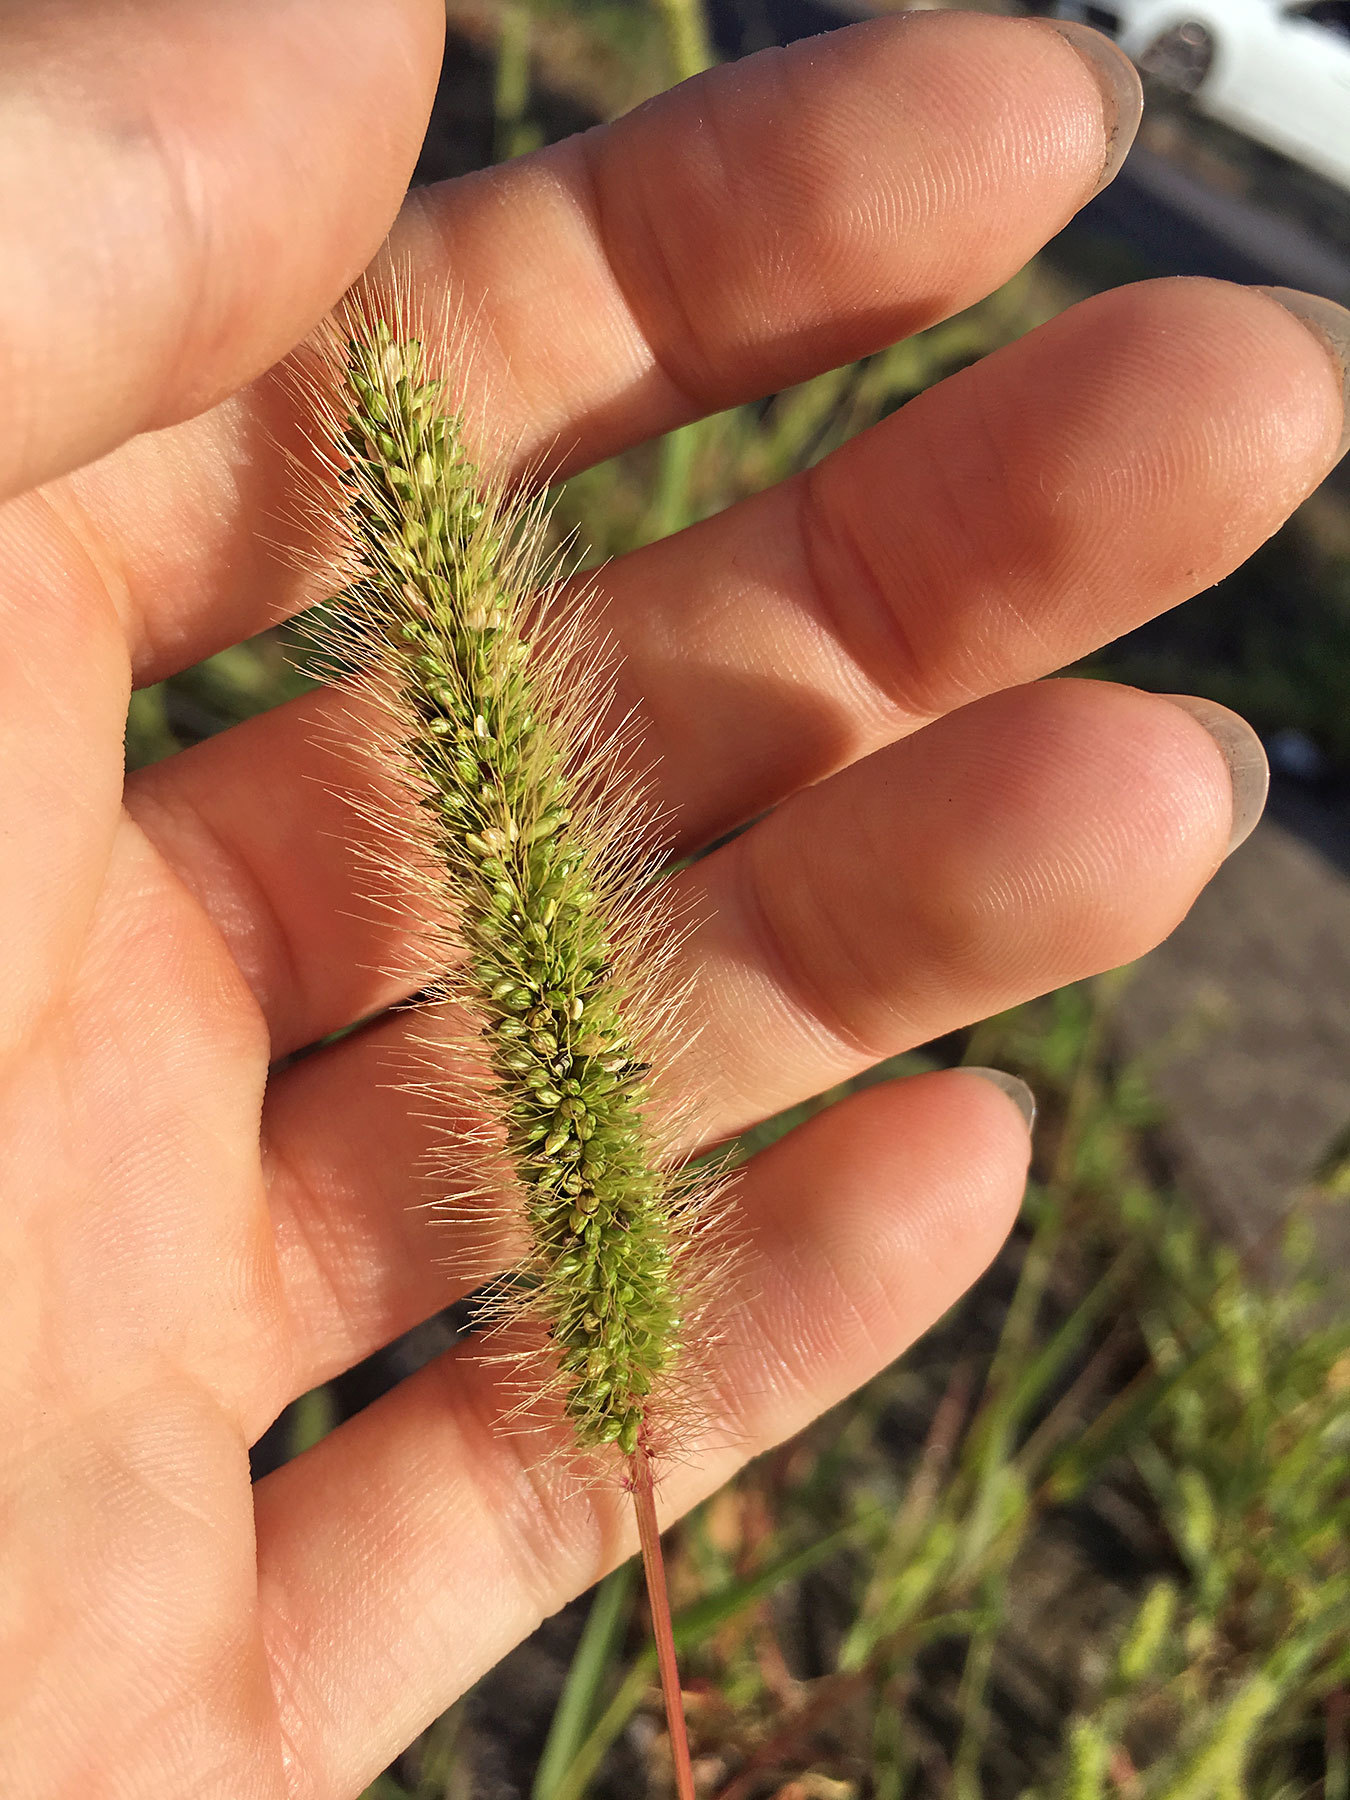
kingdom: Plantae
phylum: Tracheophyta
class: Liliopsida
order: Poales
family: Poaceae
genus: Setaria
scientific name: Setaria viridis
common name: Green bristlegrass
